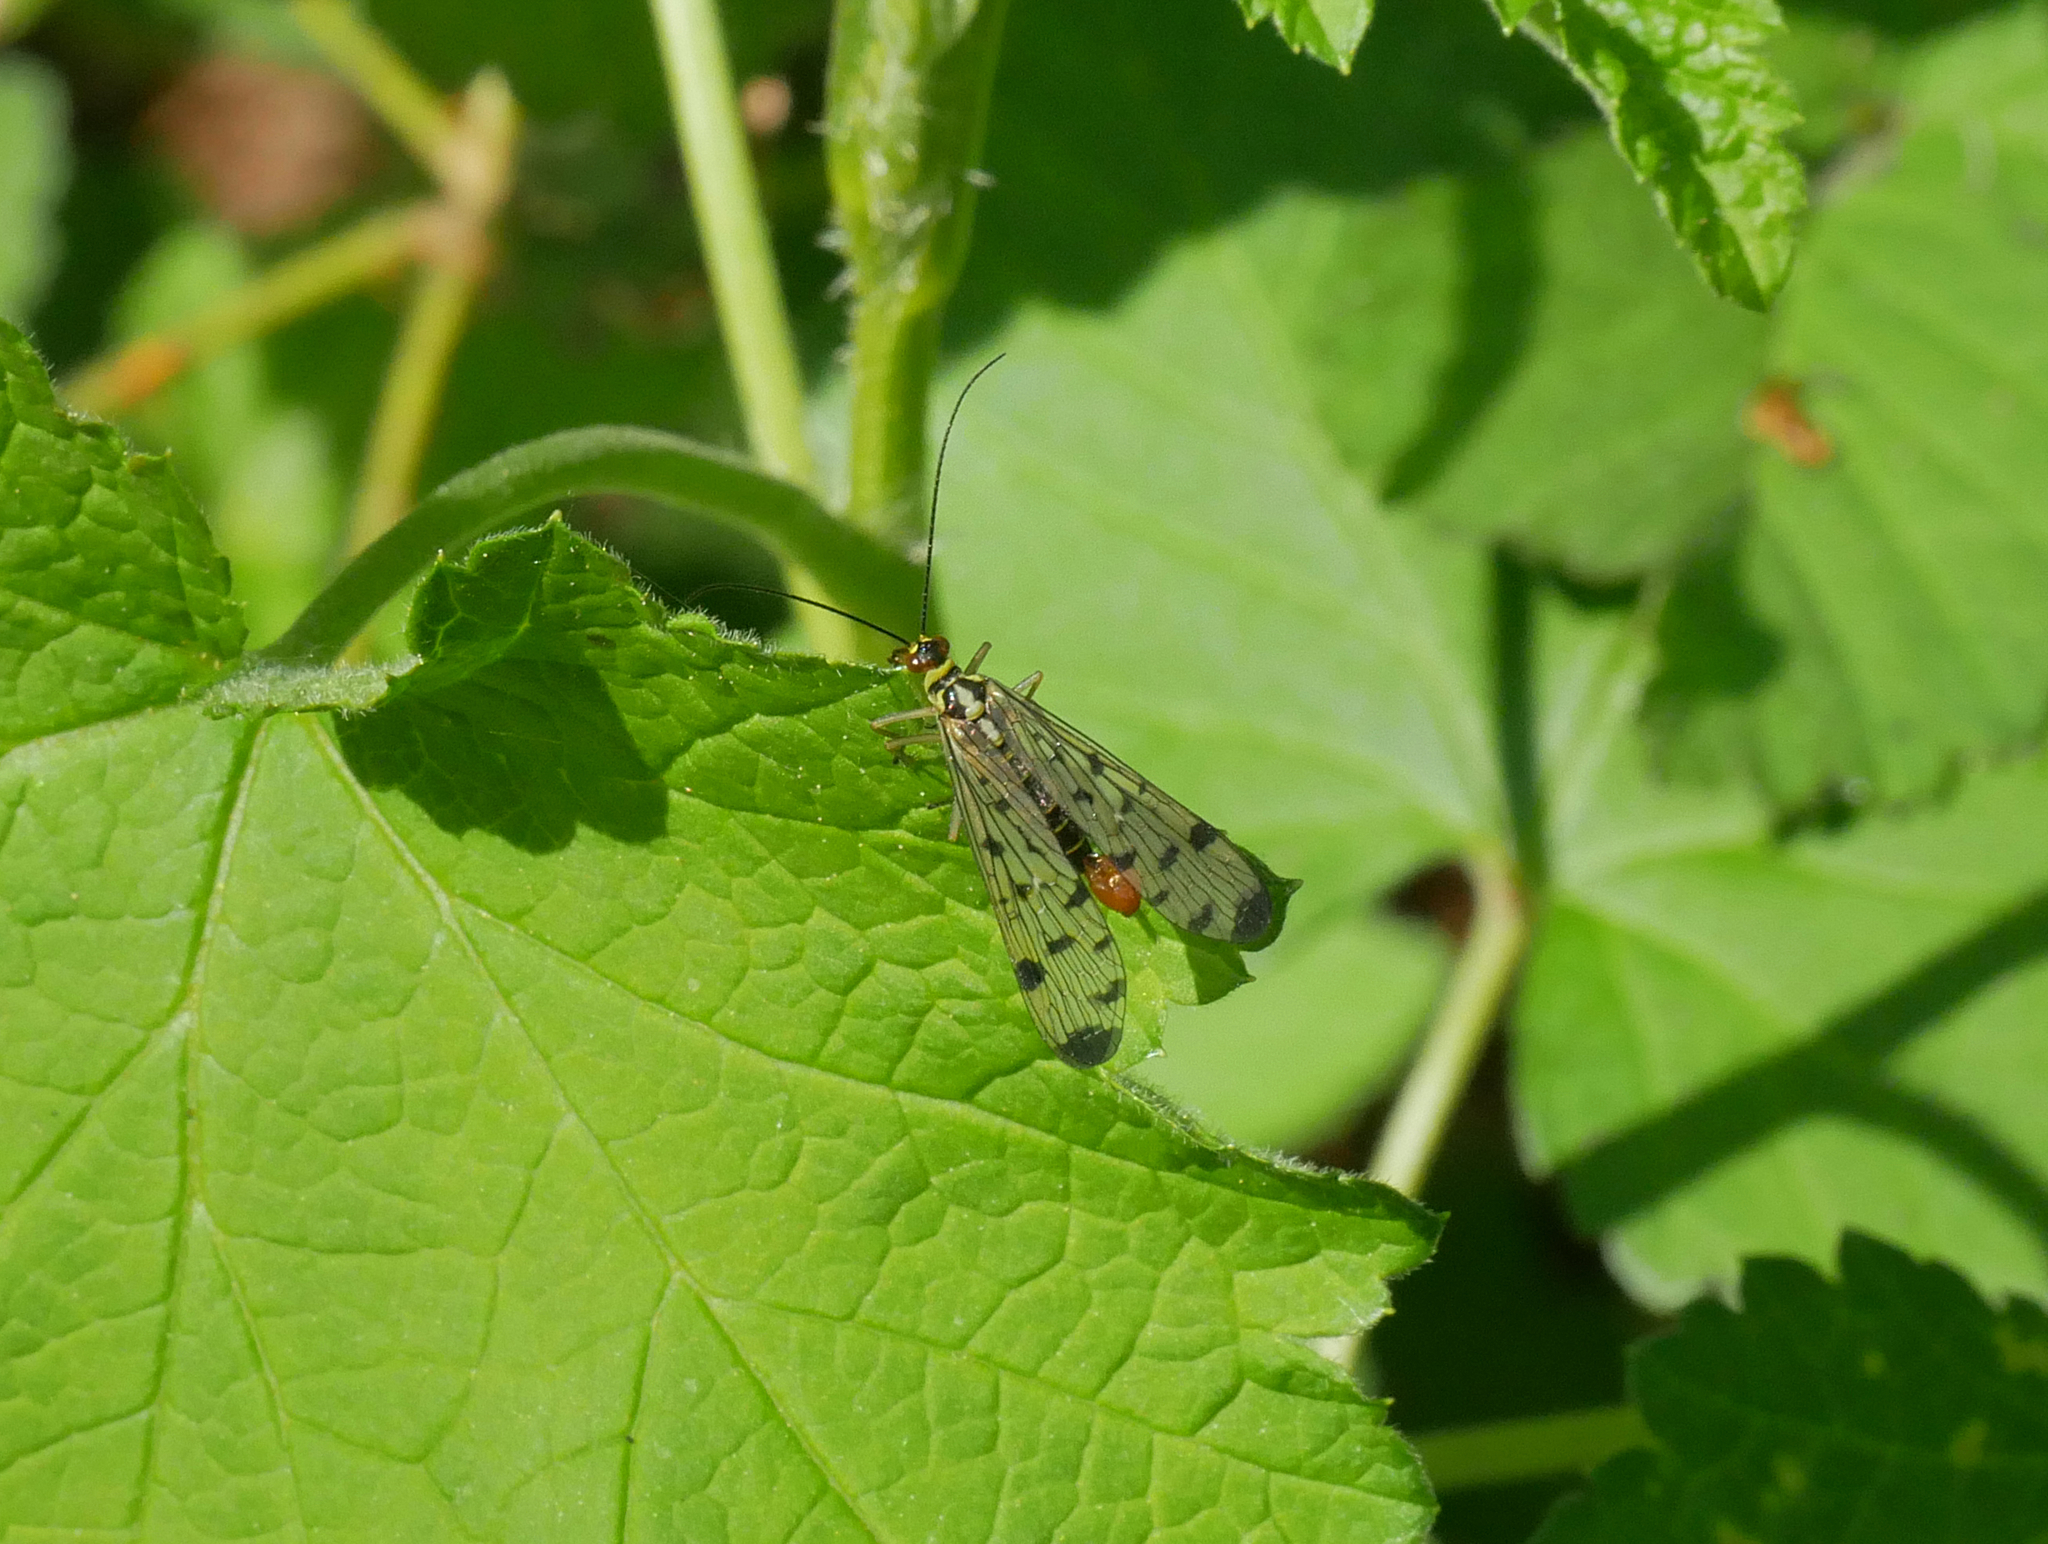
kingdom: Animalia
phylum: Arthropoda
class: Insecta
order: Mecoptera
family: Panorpidae
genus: Panorpa
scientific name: Panorpa germanica
